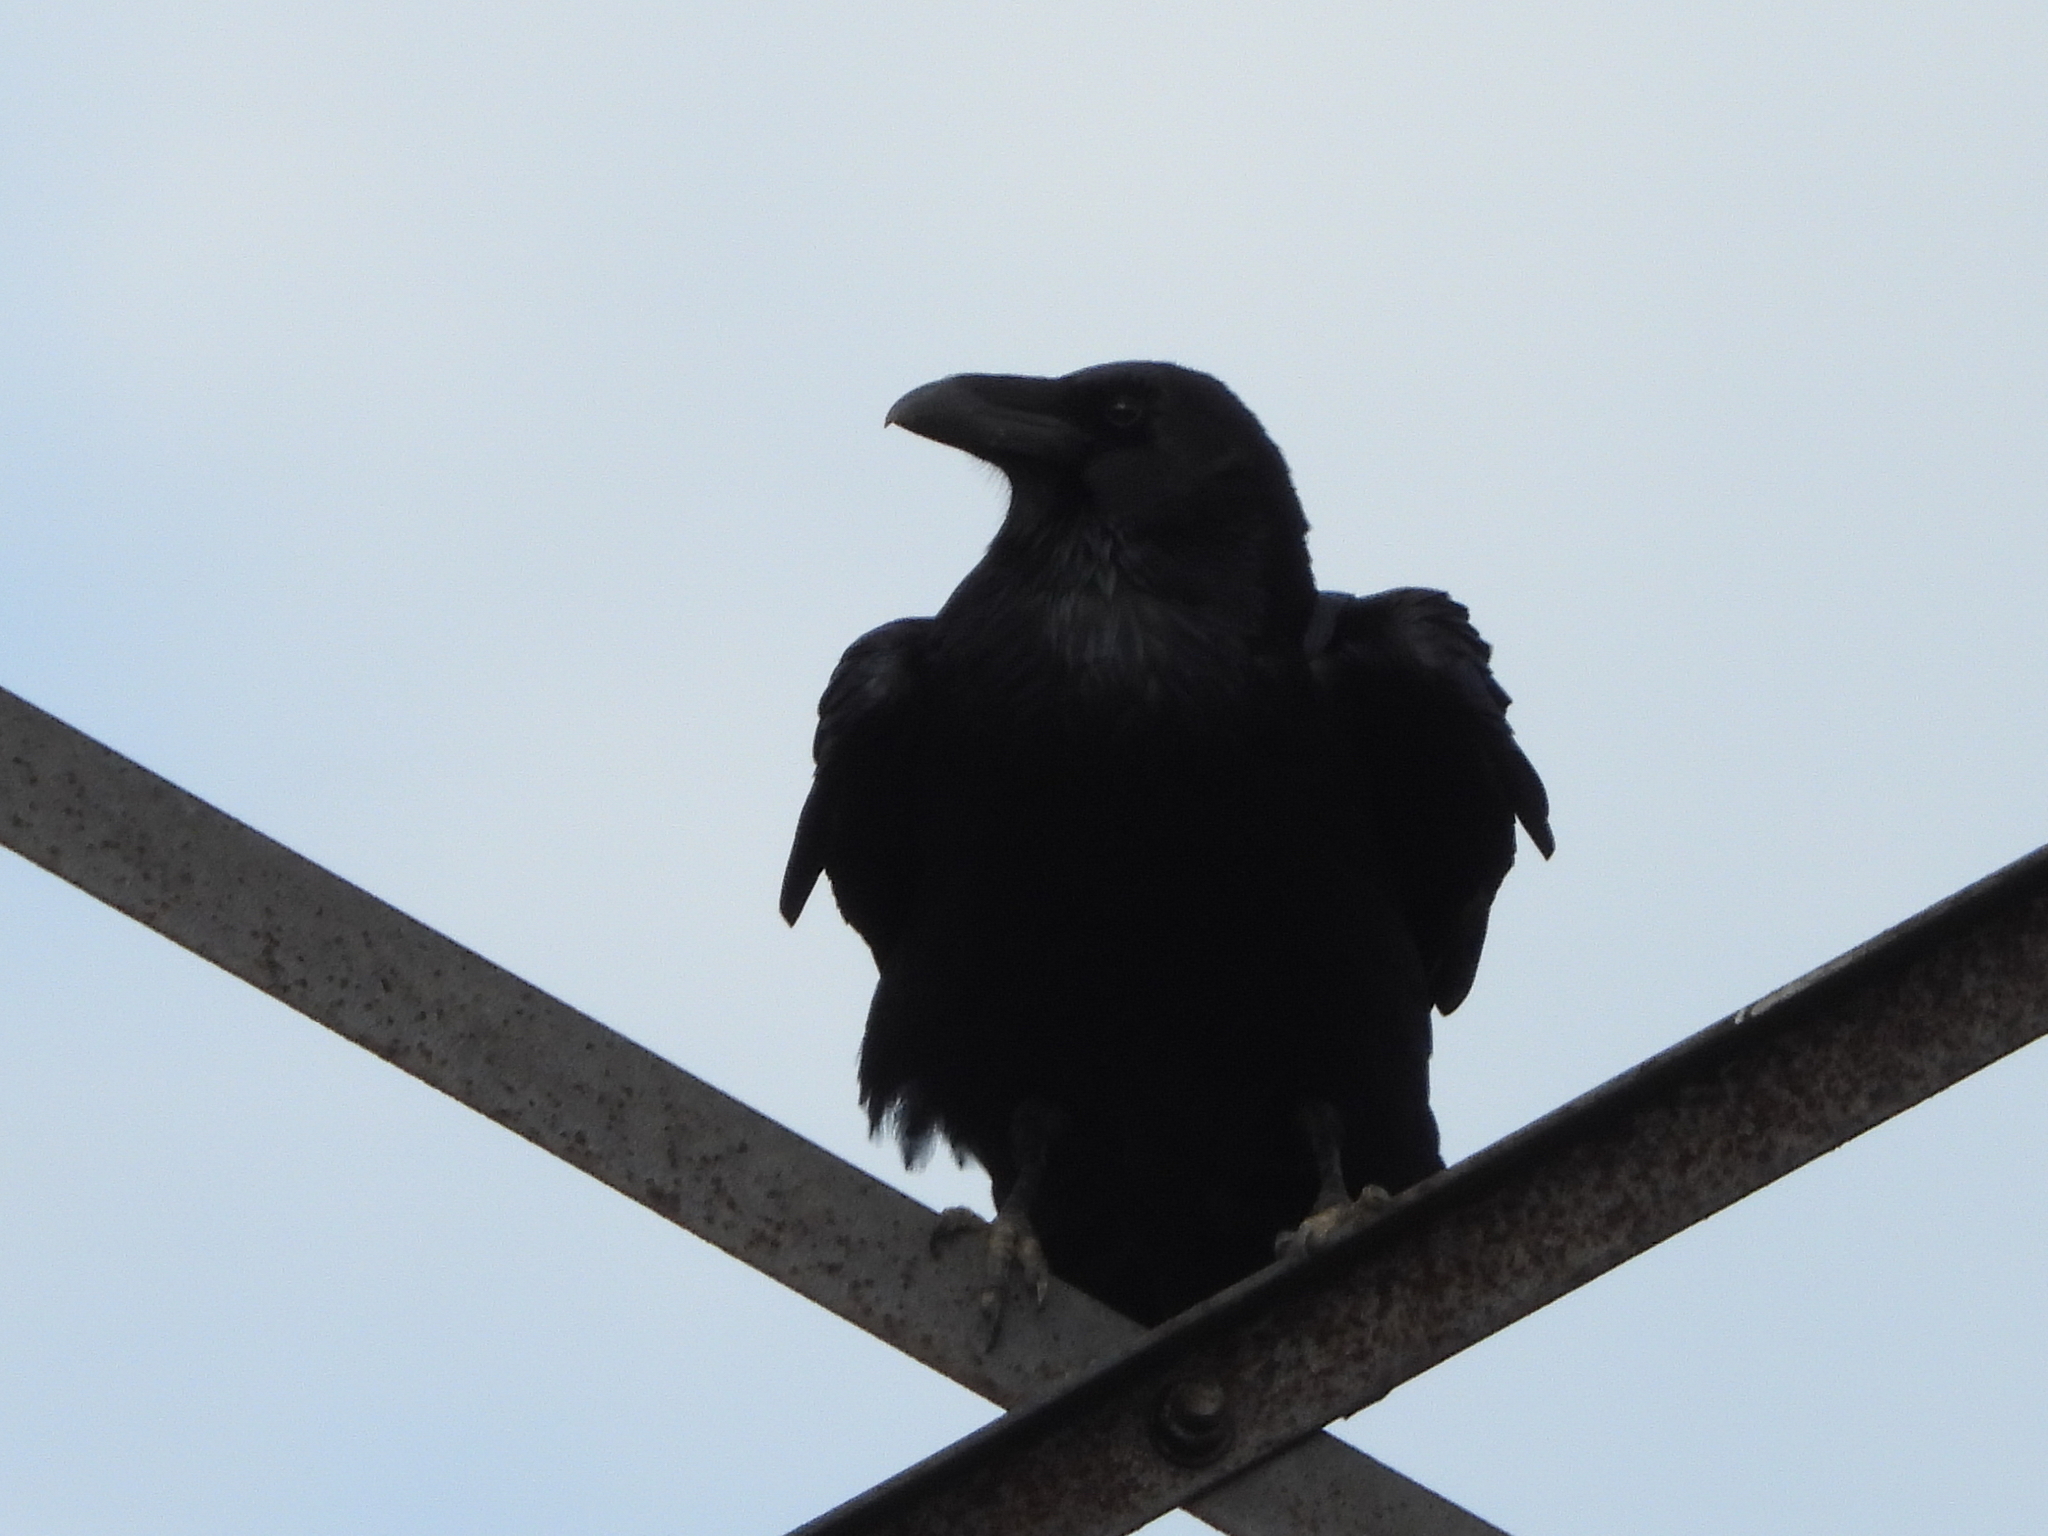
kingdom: Animalia
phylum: Chordata
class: Aves
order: Passeriformes
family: Corvidae
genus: Corvus
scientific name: Corvus corax
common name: Common raven
